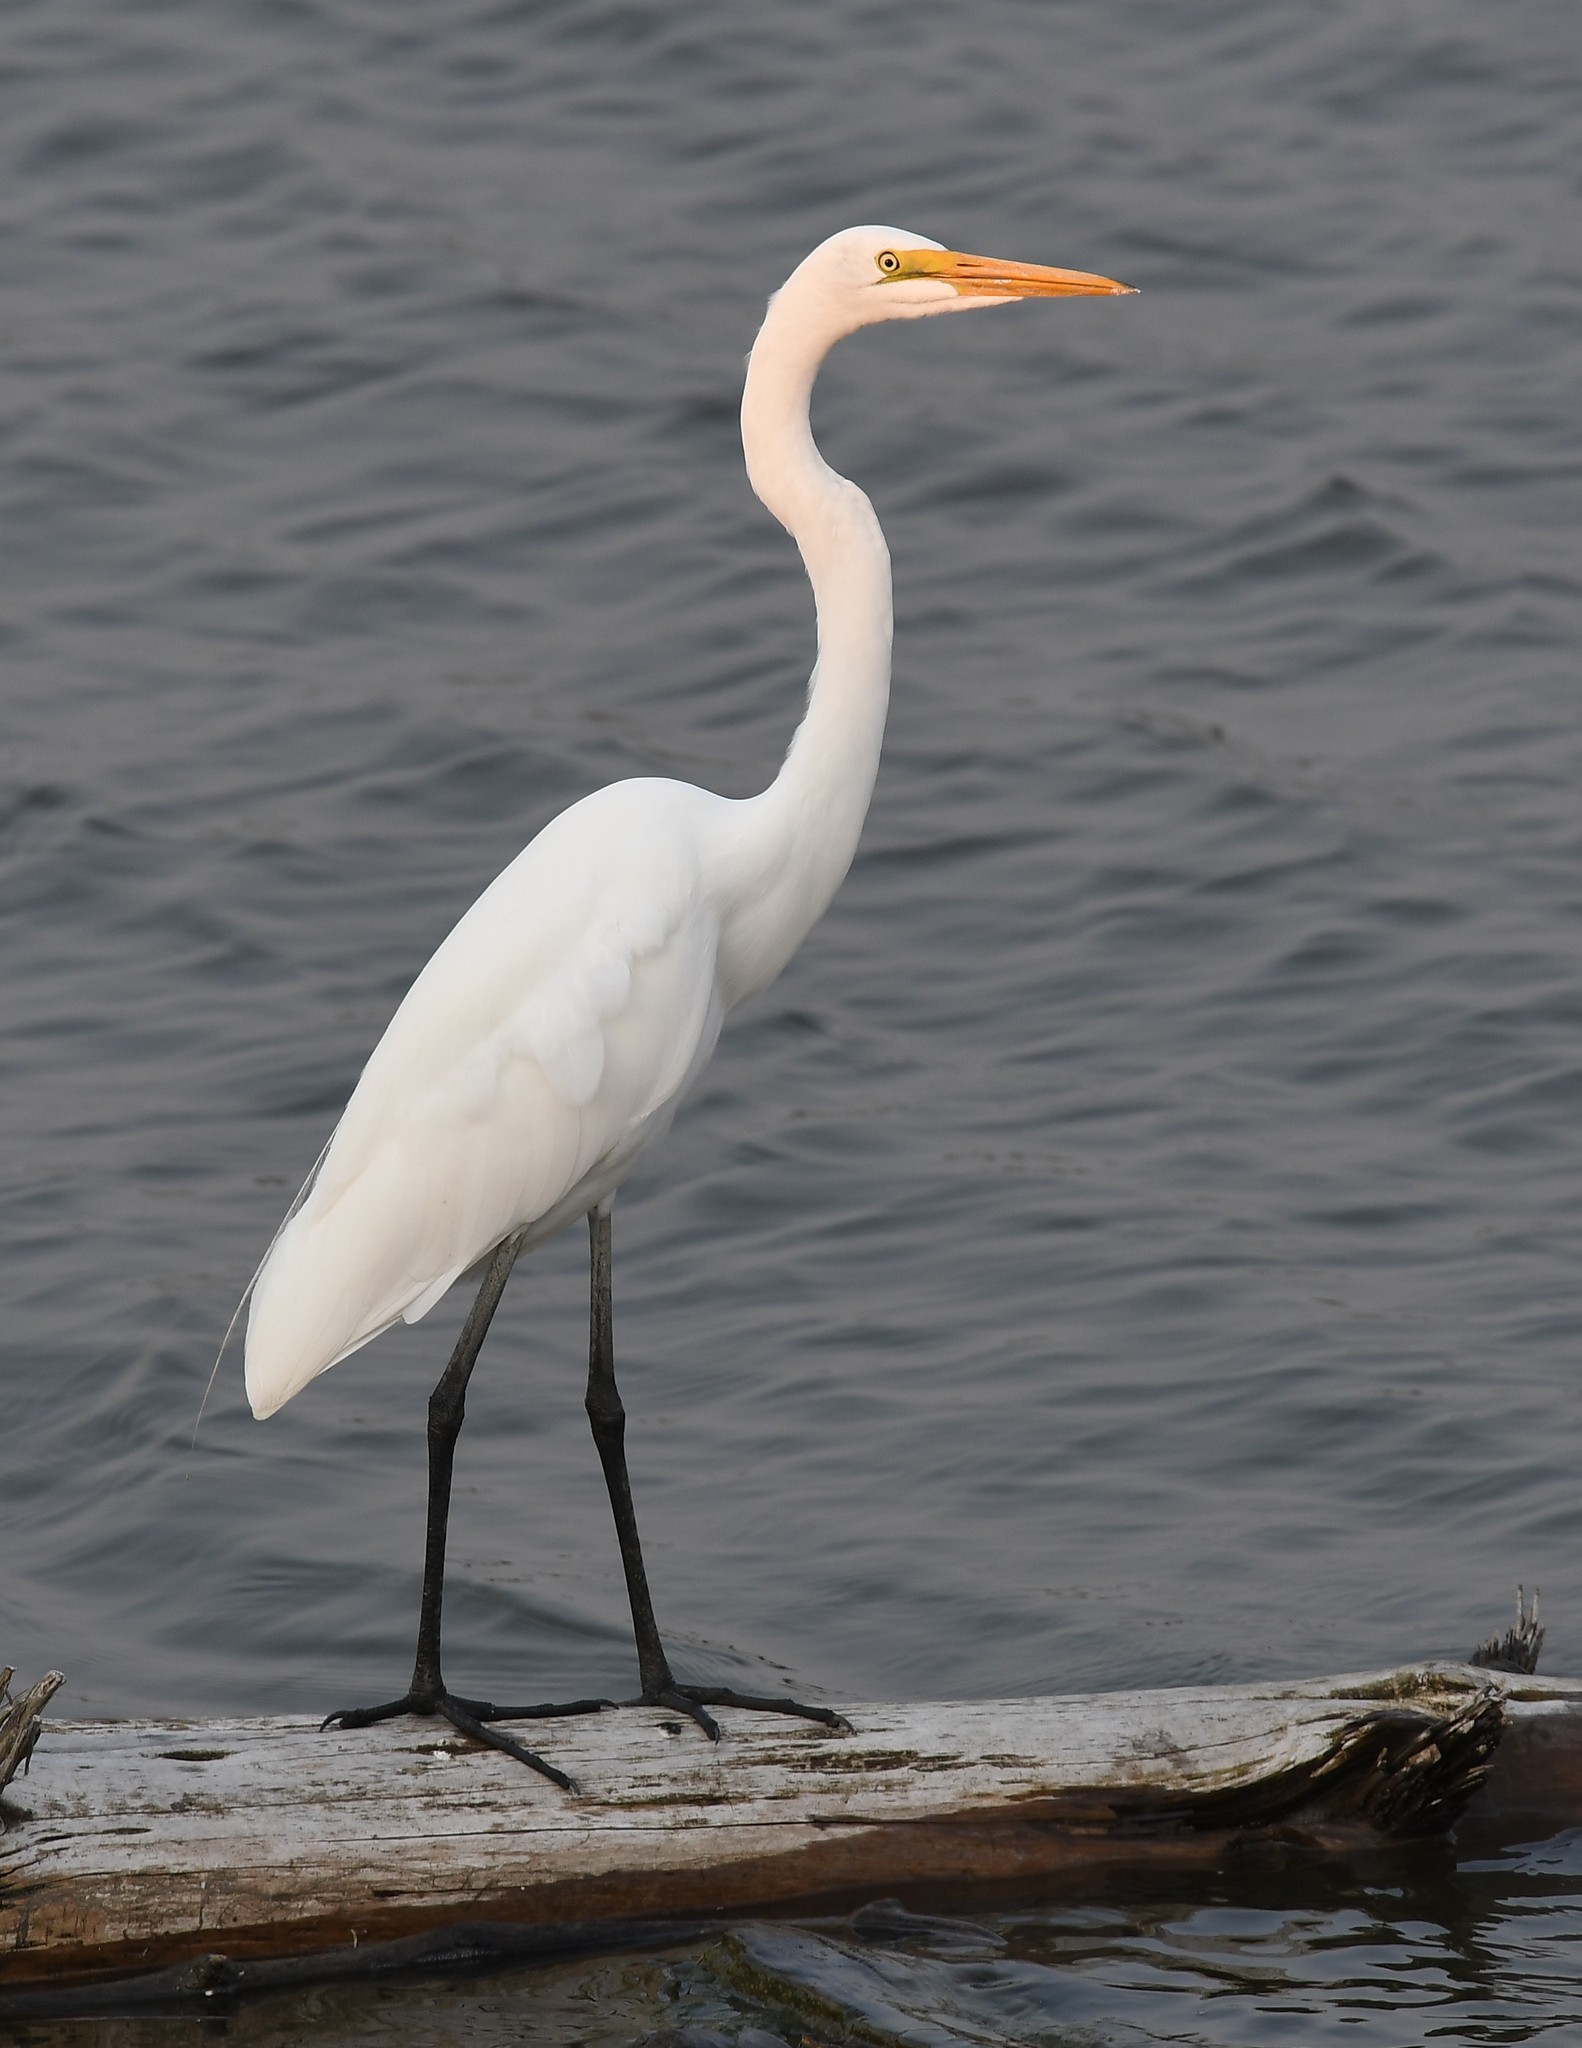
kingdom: Animalia
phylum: Chordata
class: Aves
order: Pelecaniformes
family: Ardeidae
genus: Ardea
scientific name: Ardea alba
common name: Great egret
